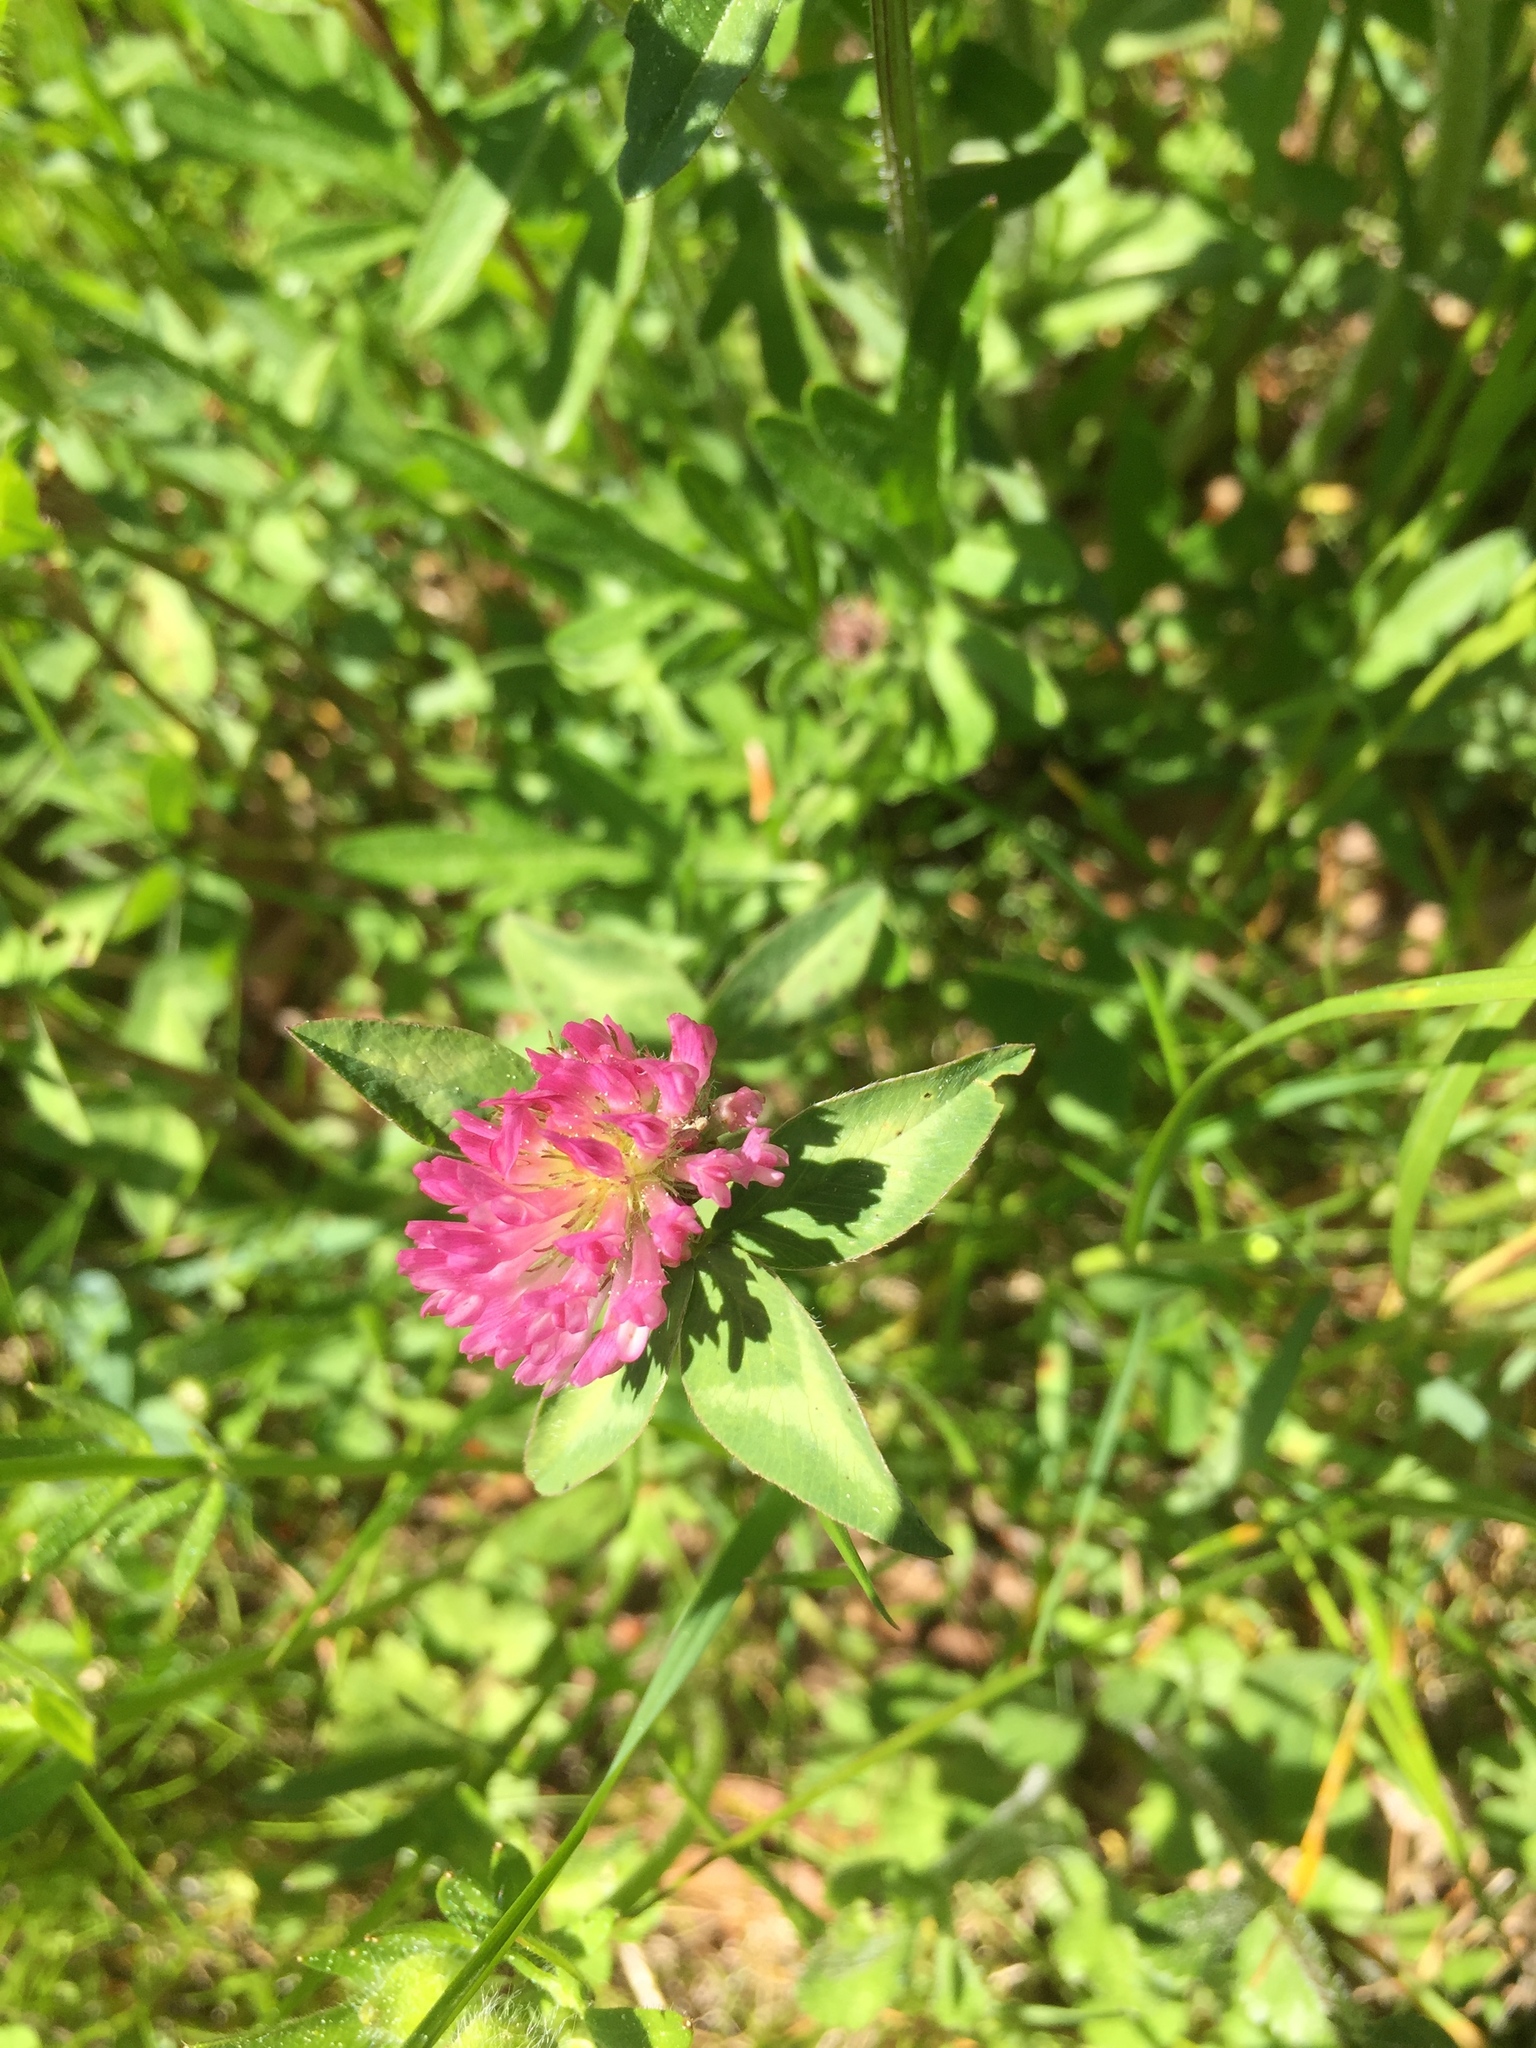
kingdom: Plantae
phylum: Tracheophyta
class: Magnoliopsida
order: Fabales
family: Fabaceae
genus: Trifolium
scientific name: Trifolium pratense
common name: Red clover
